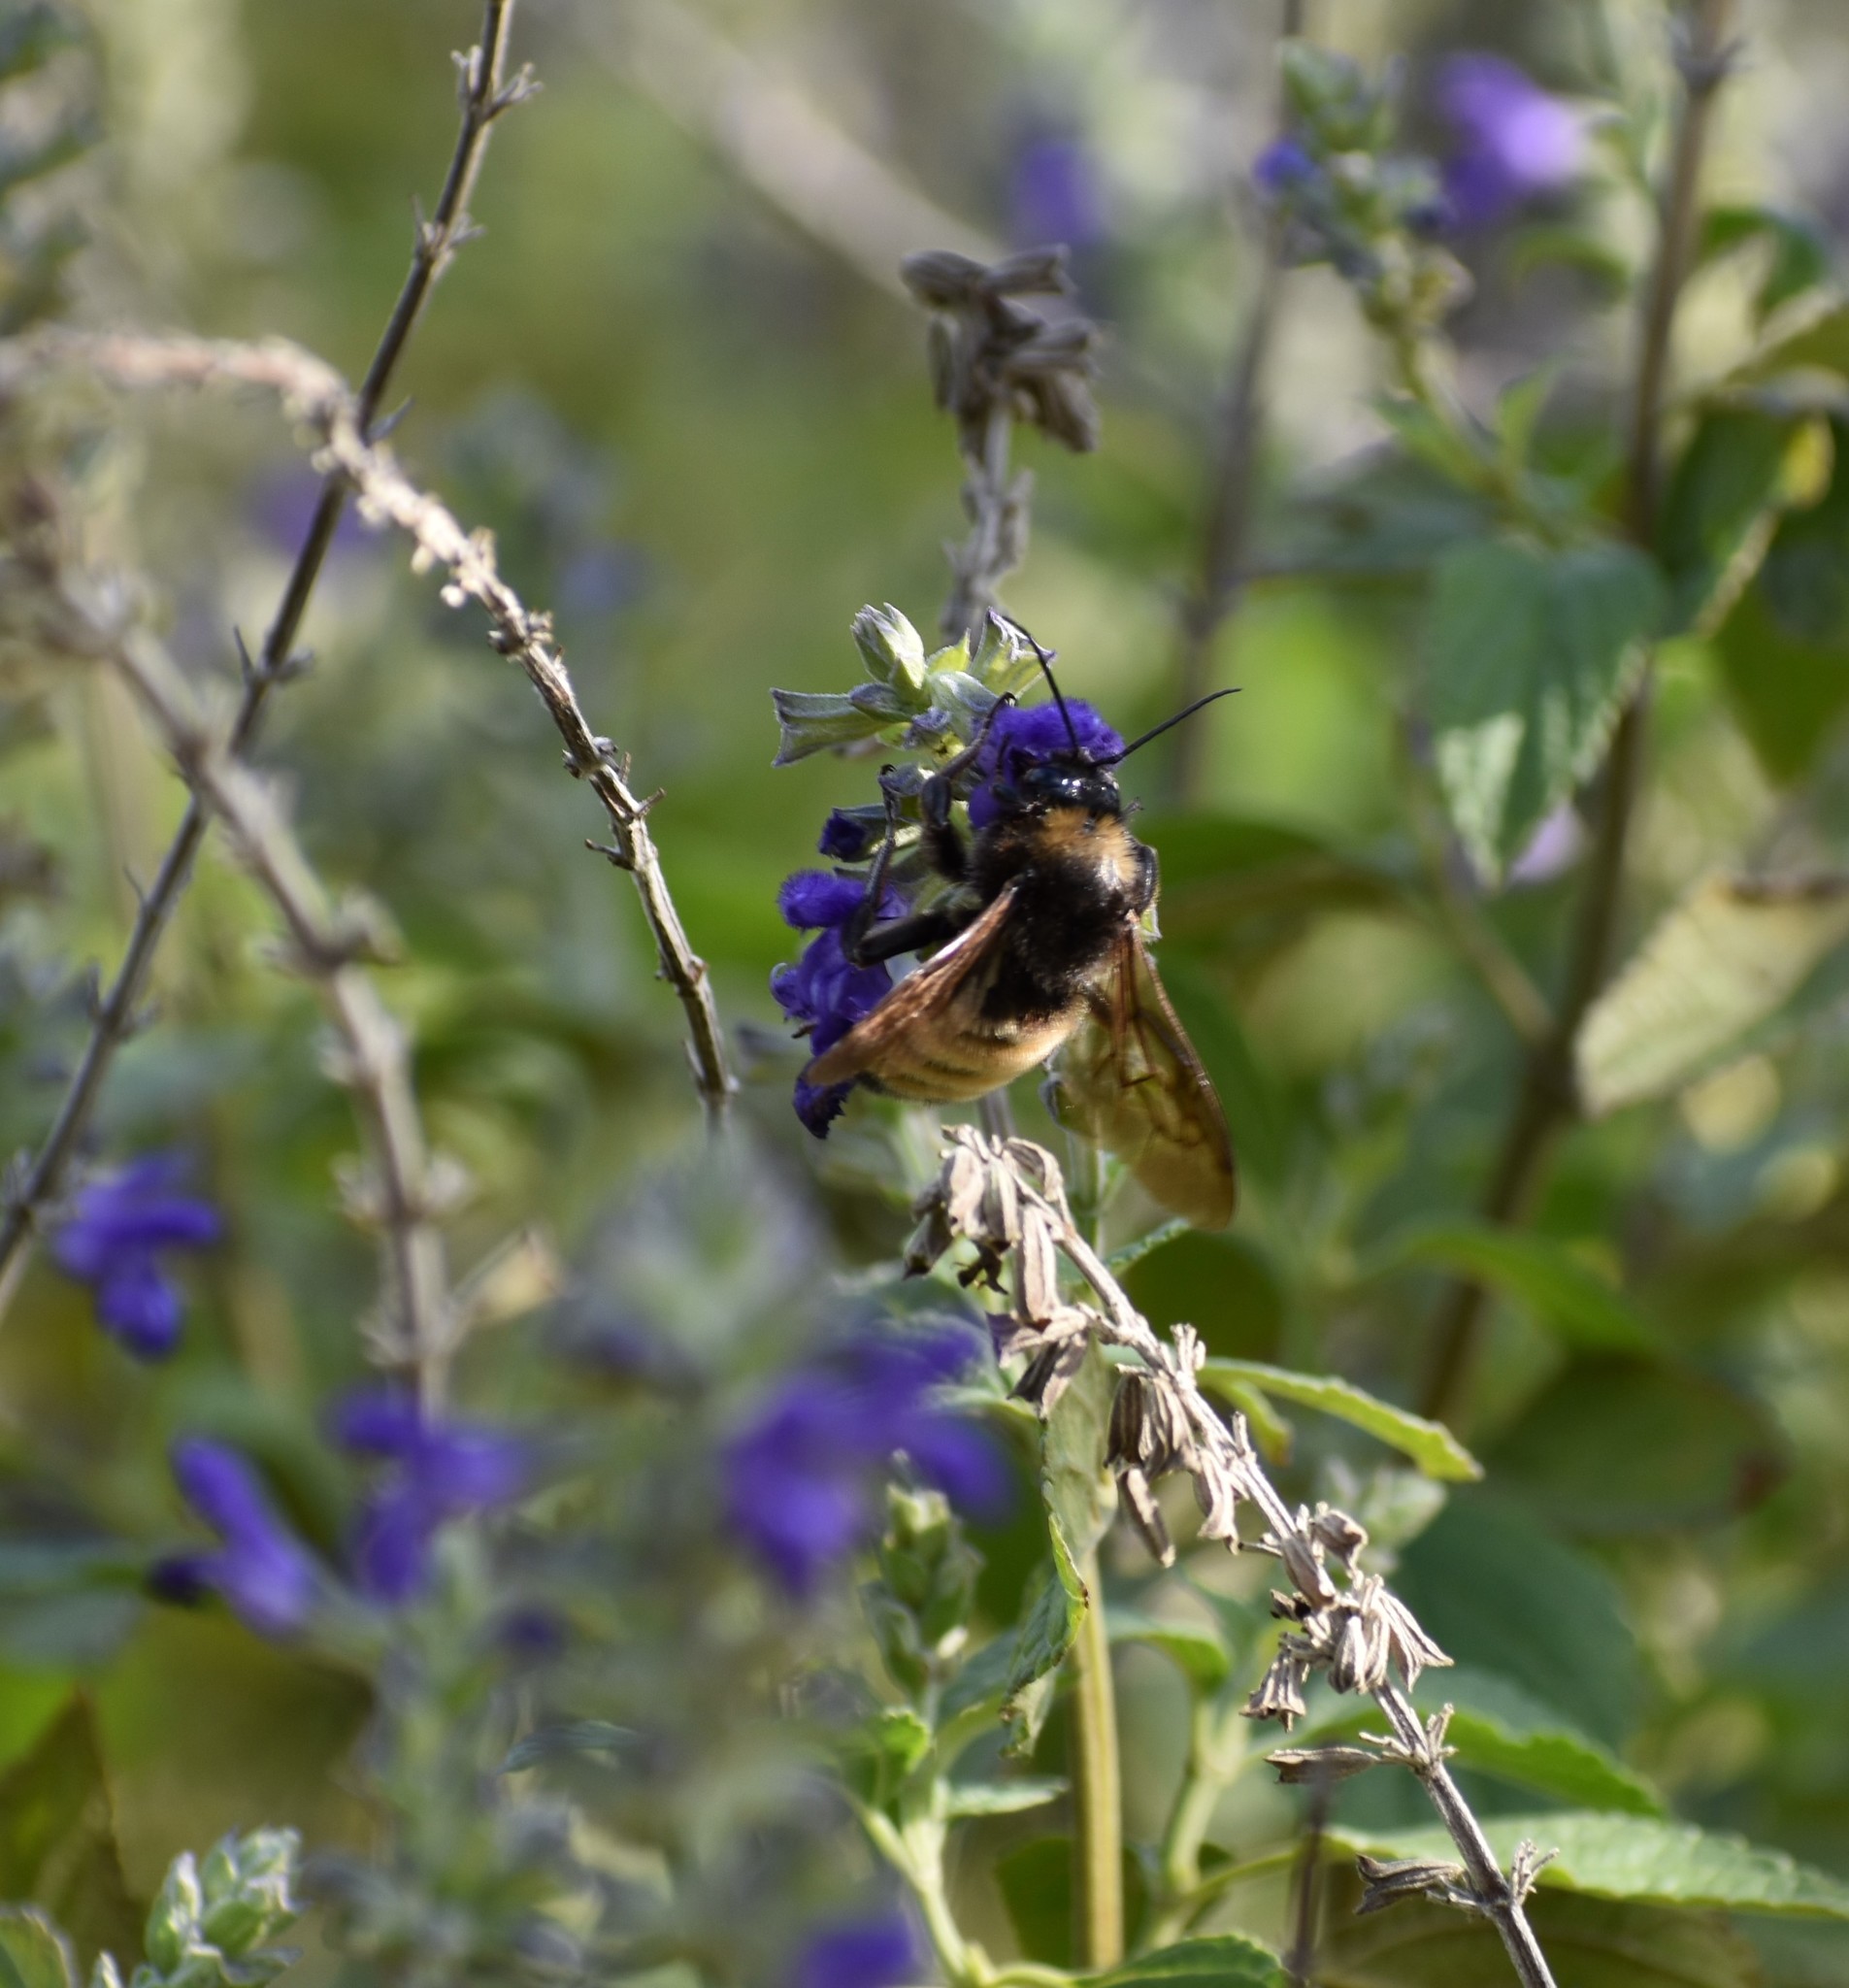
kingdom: Animalia
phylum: Arthropoda
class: Insecta
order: Hymenoptera
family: Apidae
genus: Bombus
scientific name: Bombus pensylvanicus
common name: Bumble bee
